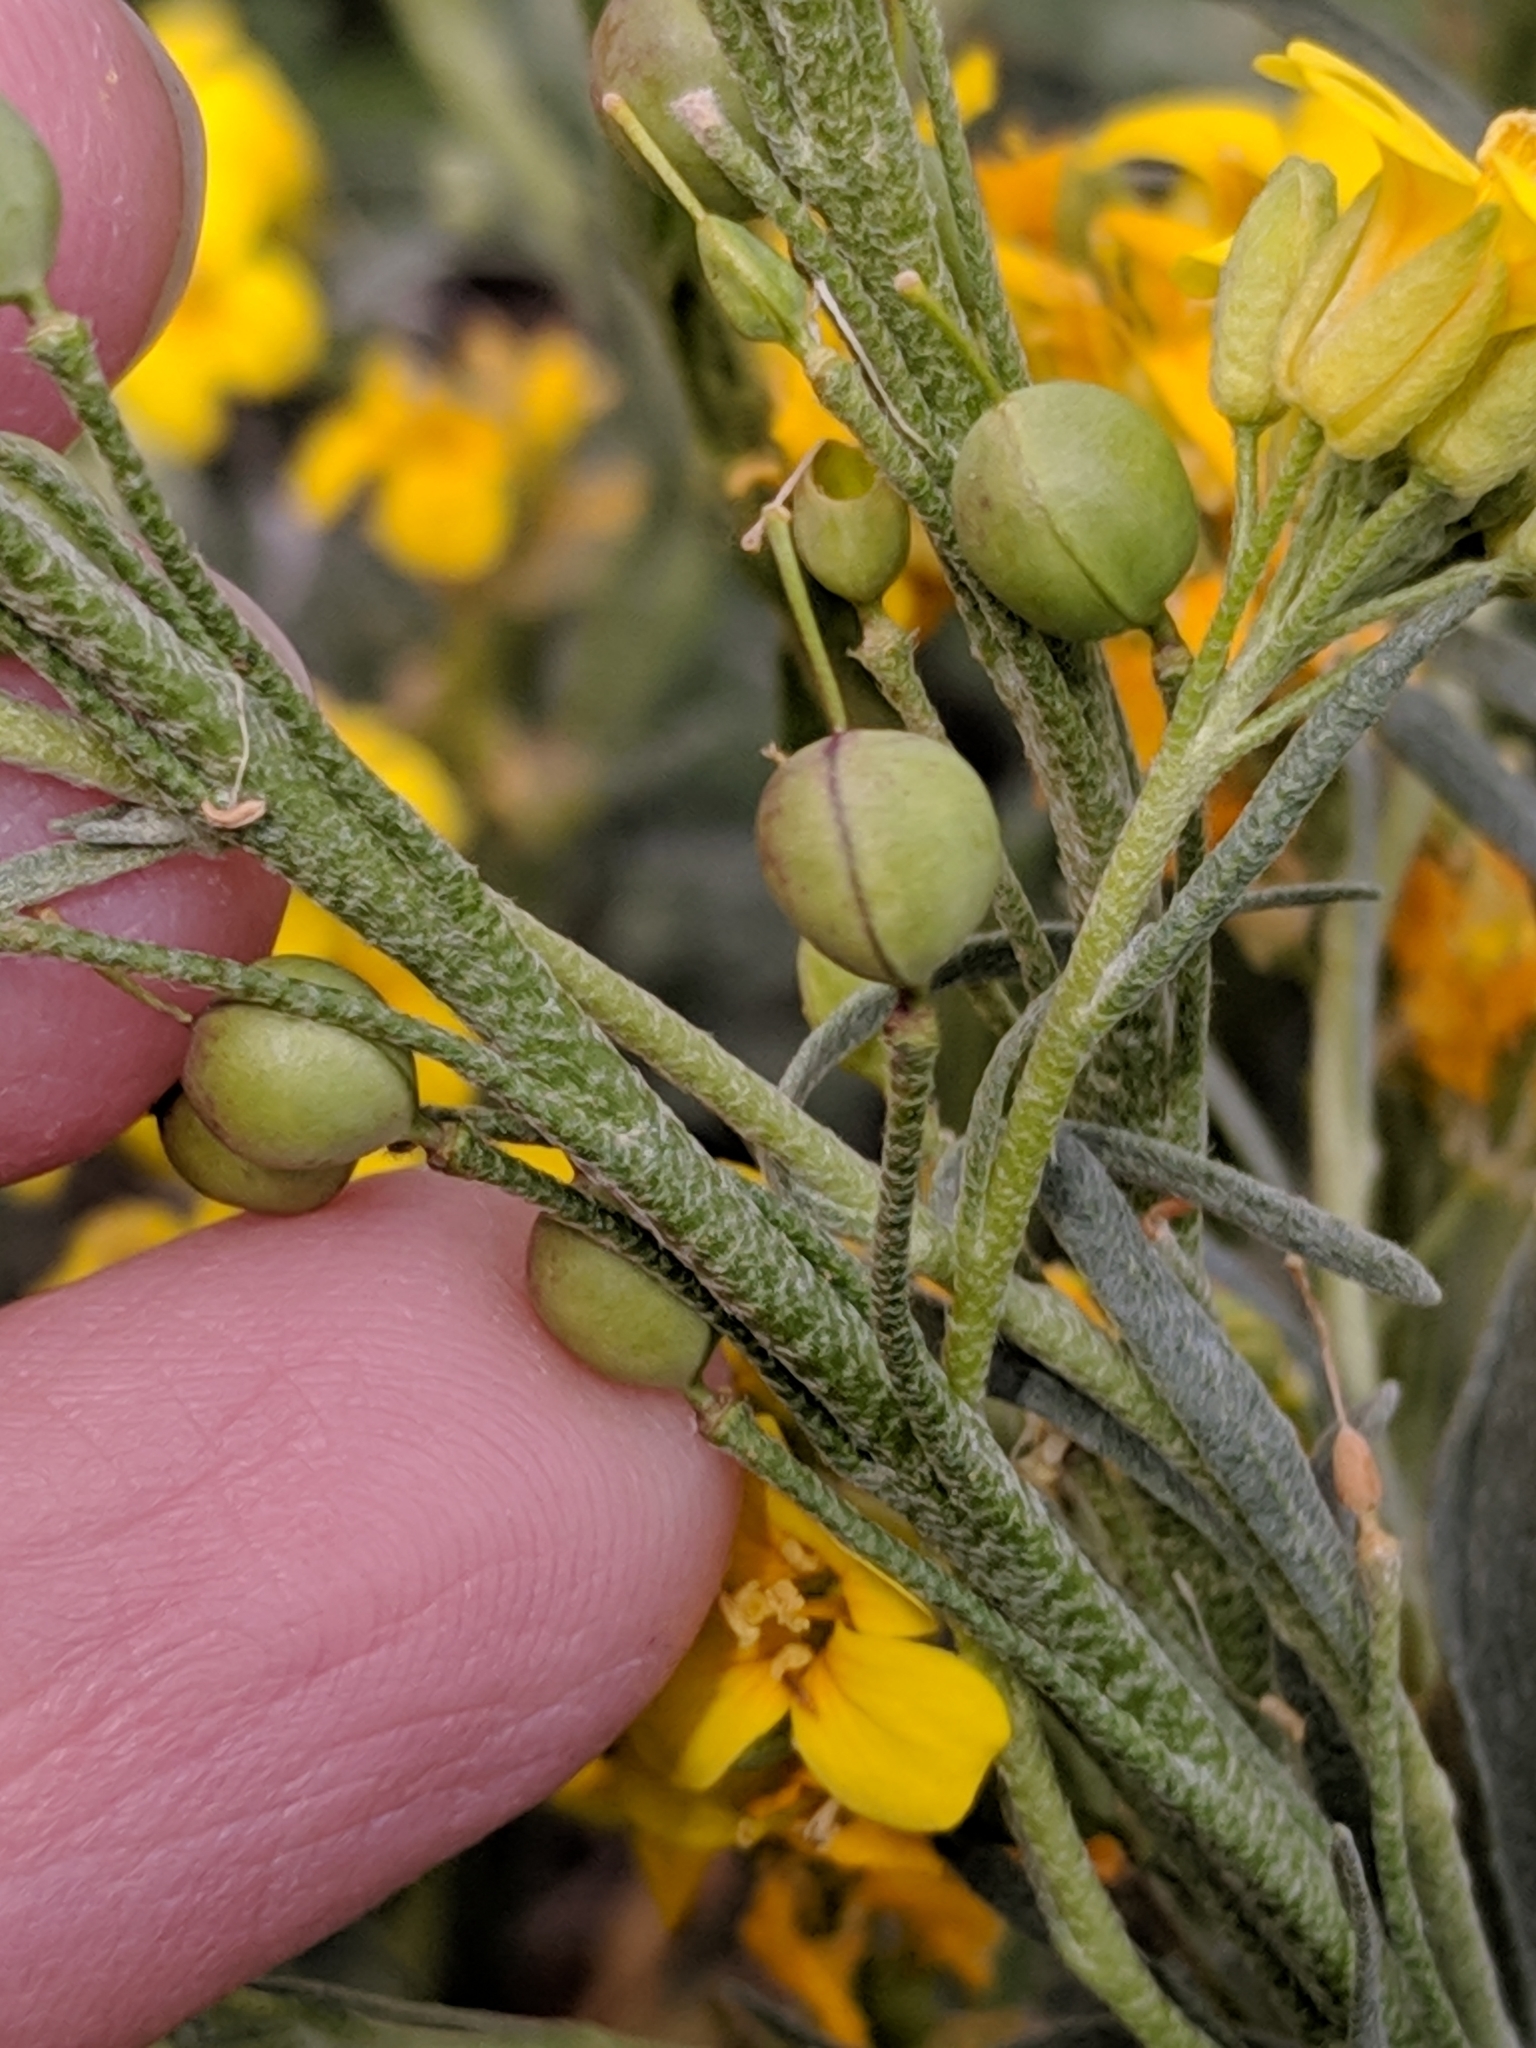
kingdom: Plantae
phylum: Tracheophyta
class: Magnoliopsida
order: Brassicales
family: Brassicaceae
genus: Physaria
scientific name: Physaria gracilis
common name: Spreading bladderpod
